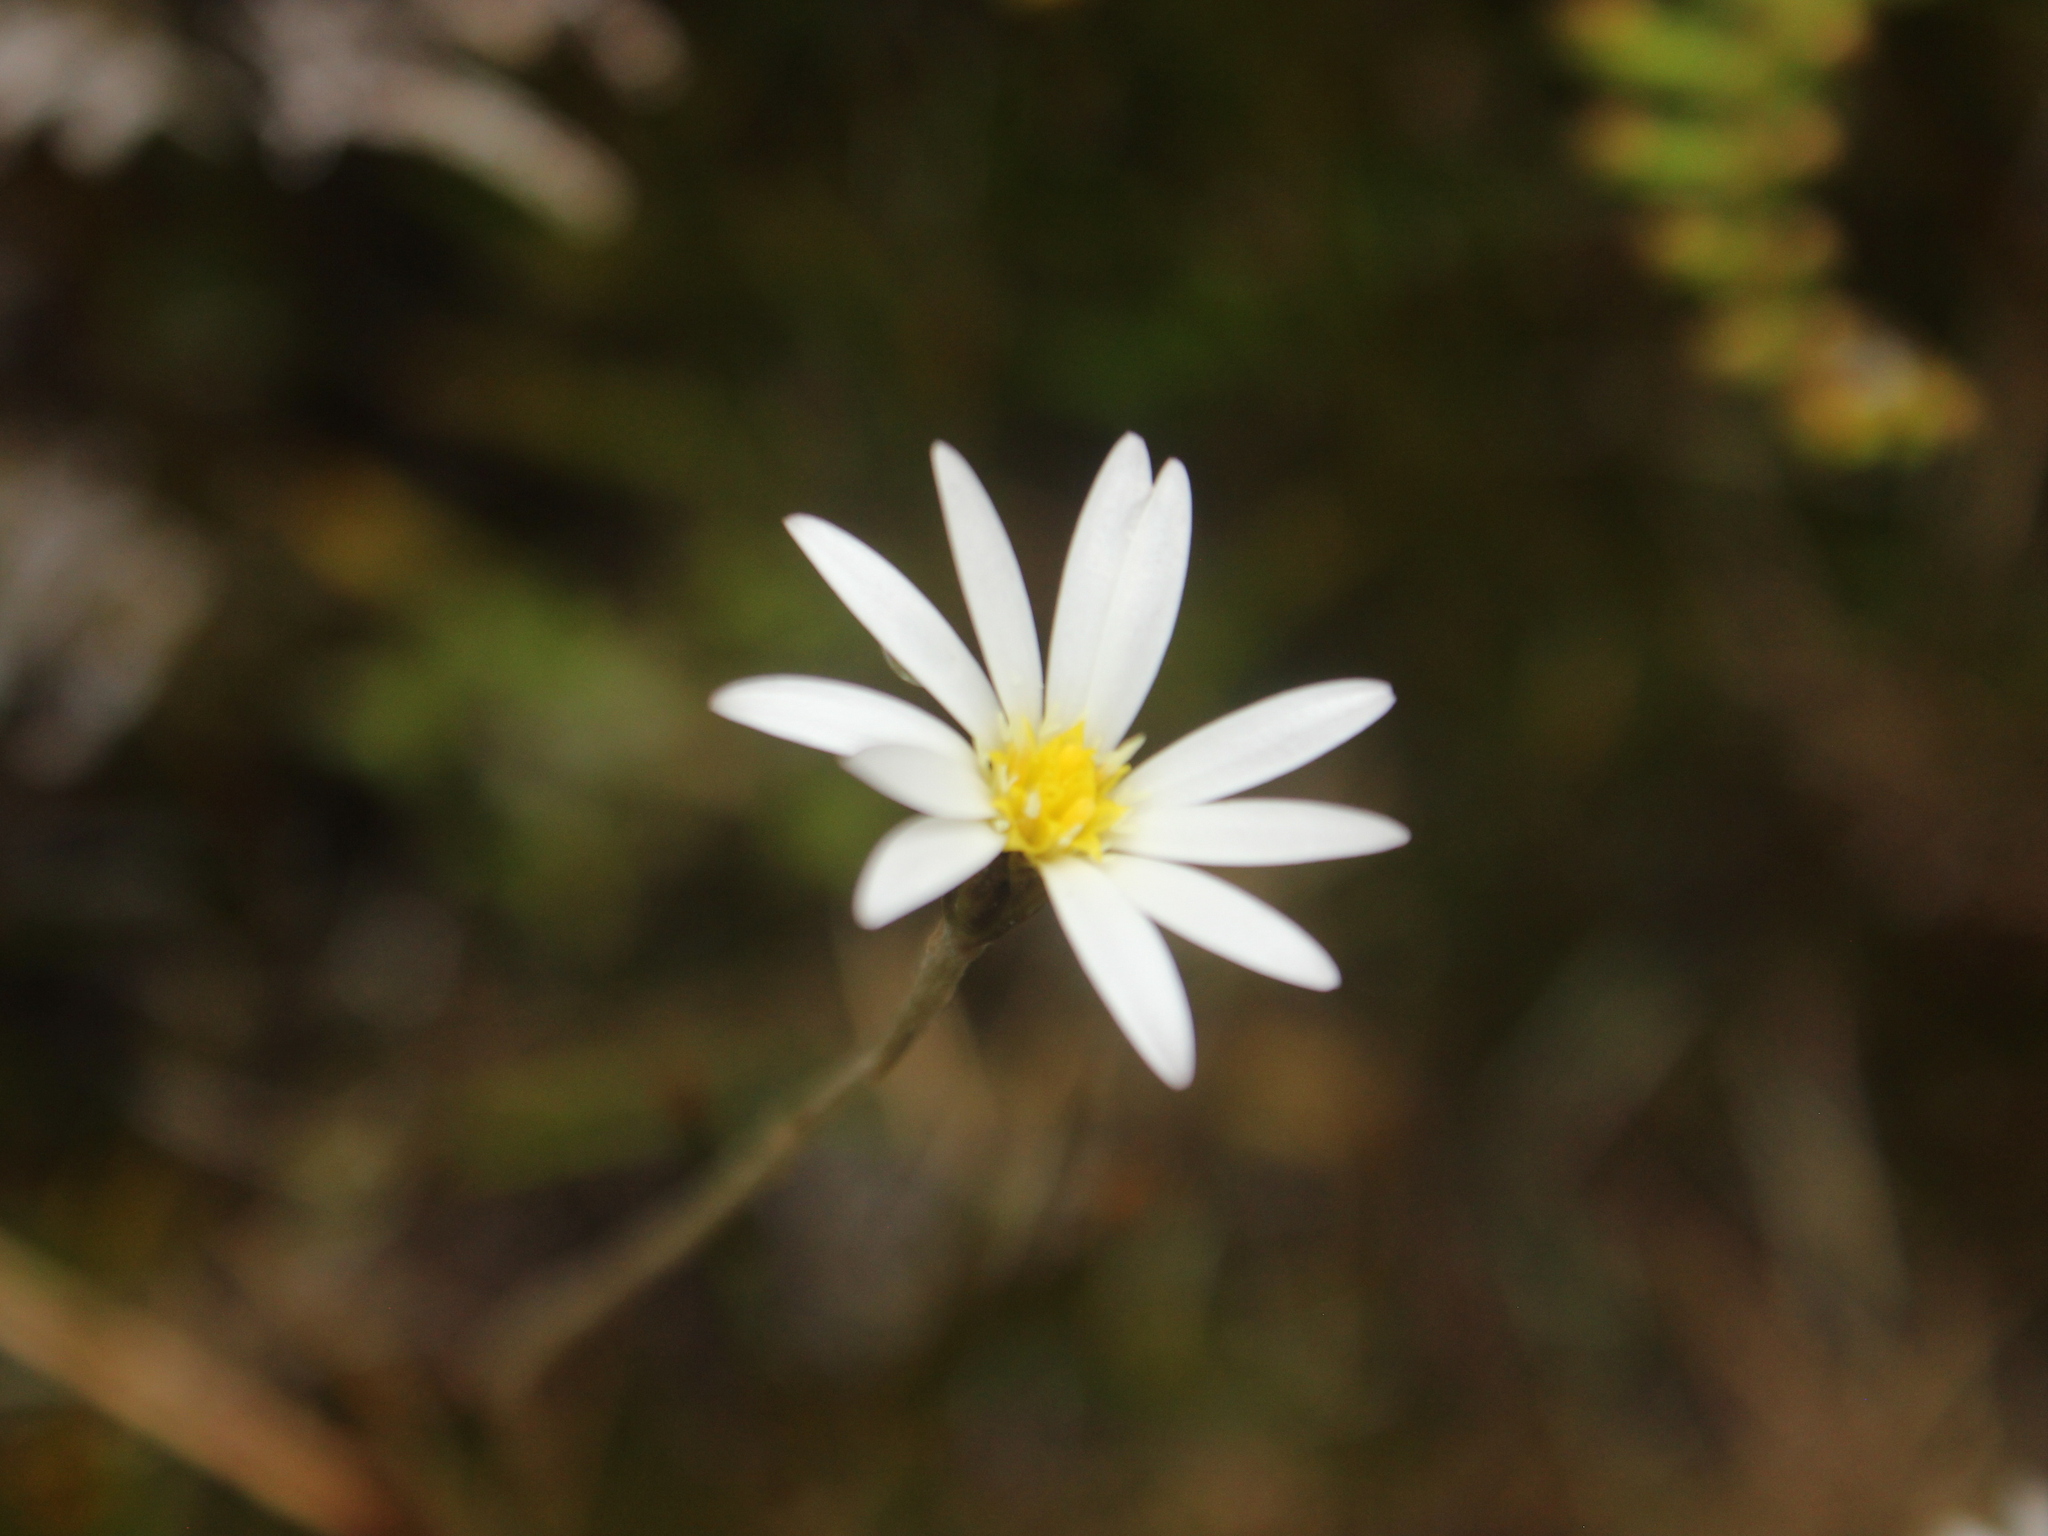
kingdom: Plantae
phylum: Tracheophyta
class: Magnoliopsida
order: Asterales
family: Asteraceae
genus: Celmisia
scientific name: Celmisia gracilenta
